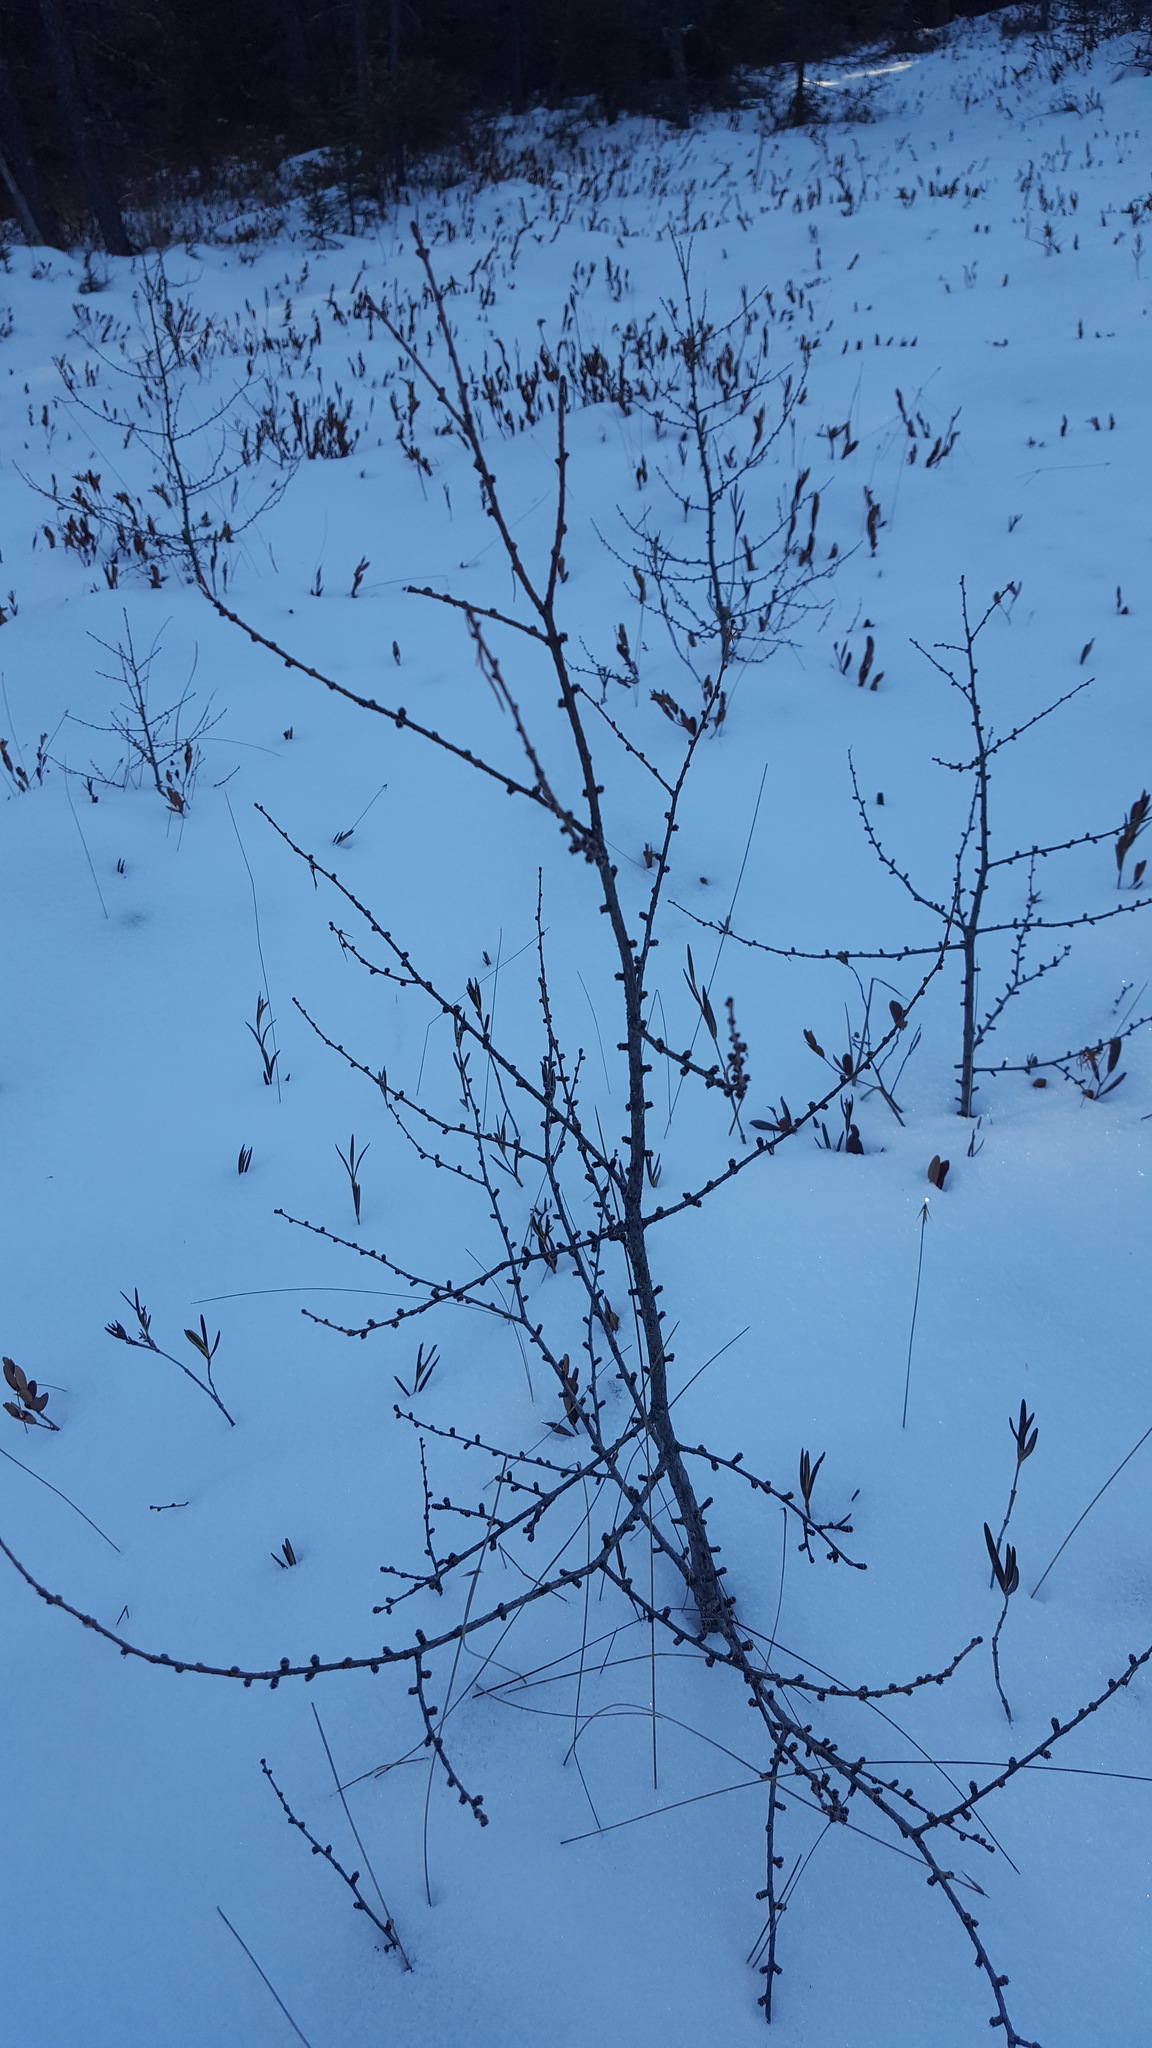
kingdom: Plantae
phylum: Tracheophyta
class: Pinopsida
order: Pinales
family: Pinaceae
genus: Larix
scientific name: Larix laricina
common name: American larch
